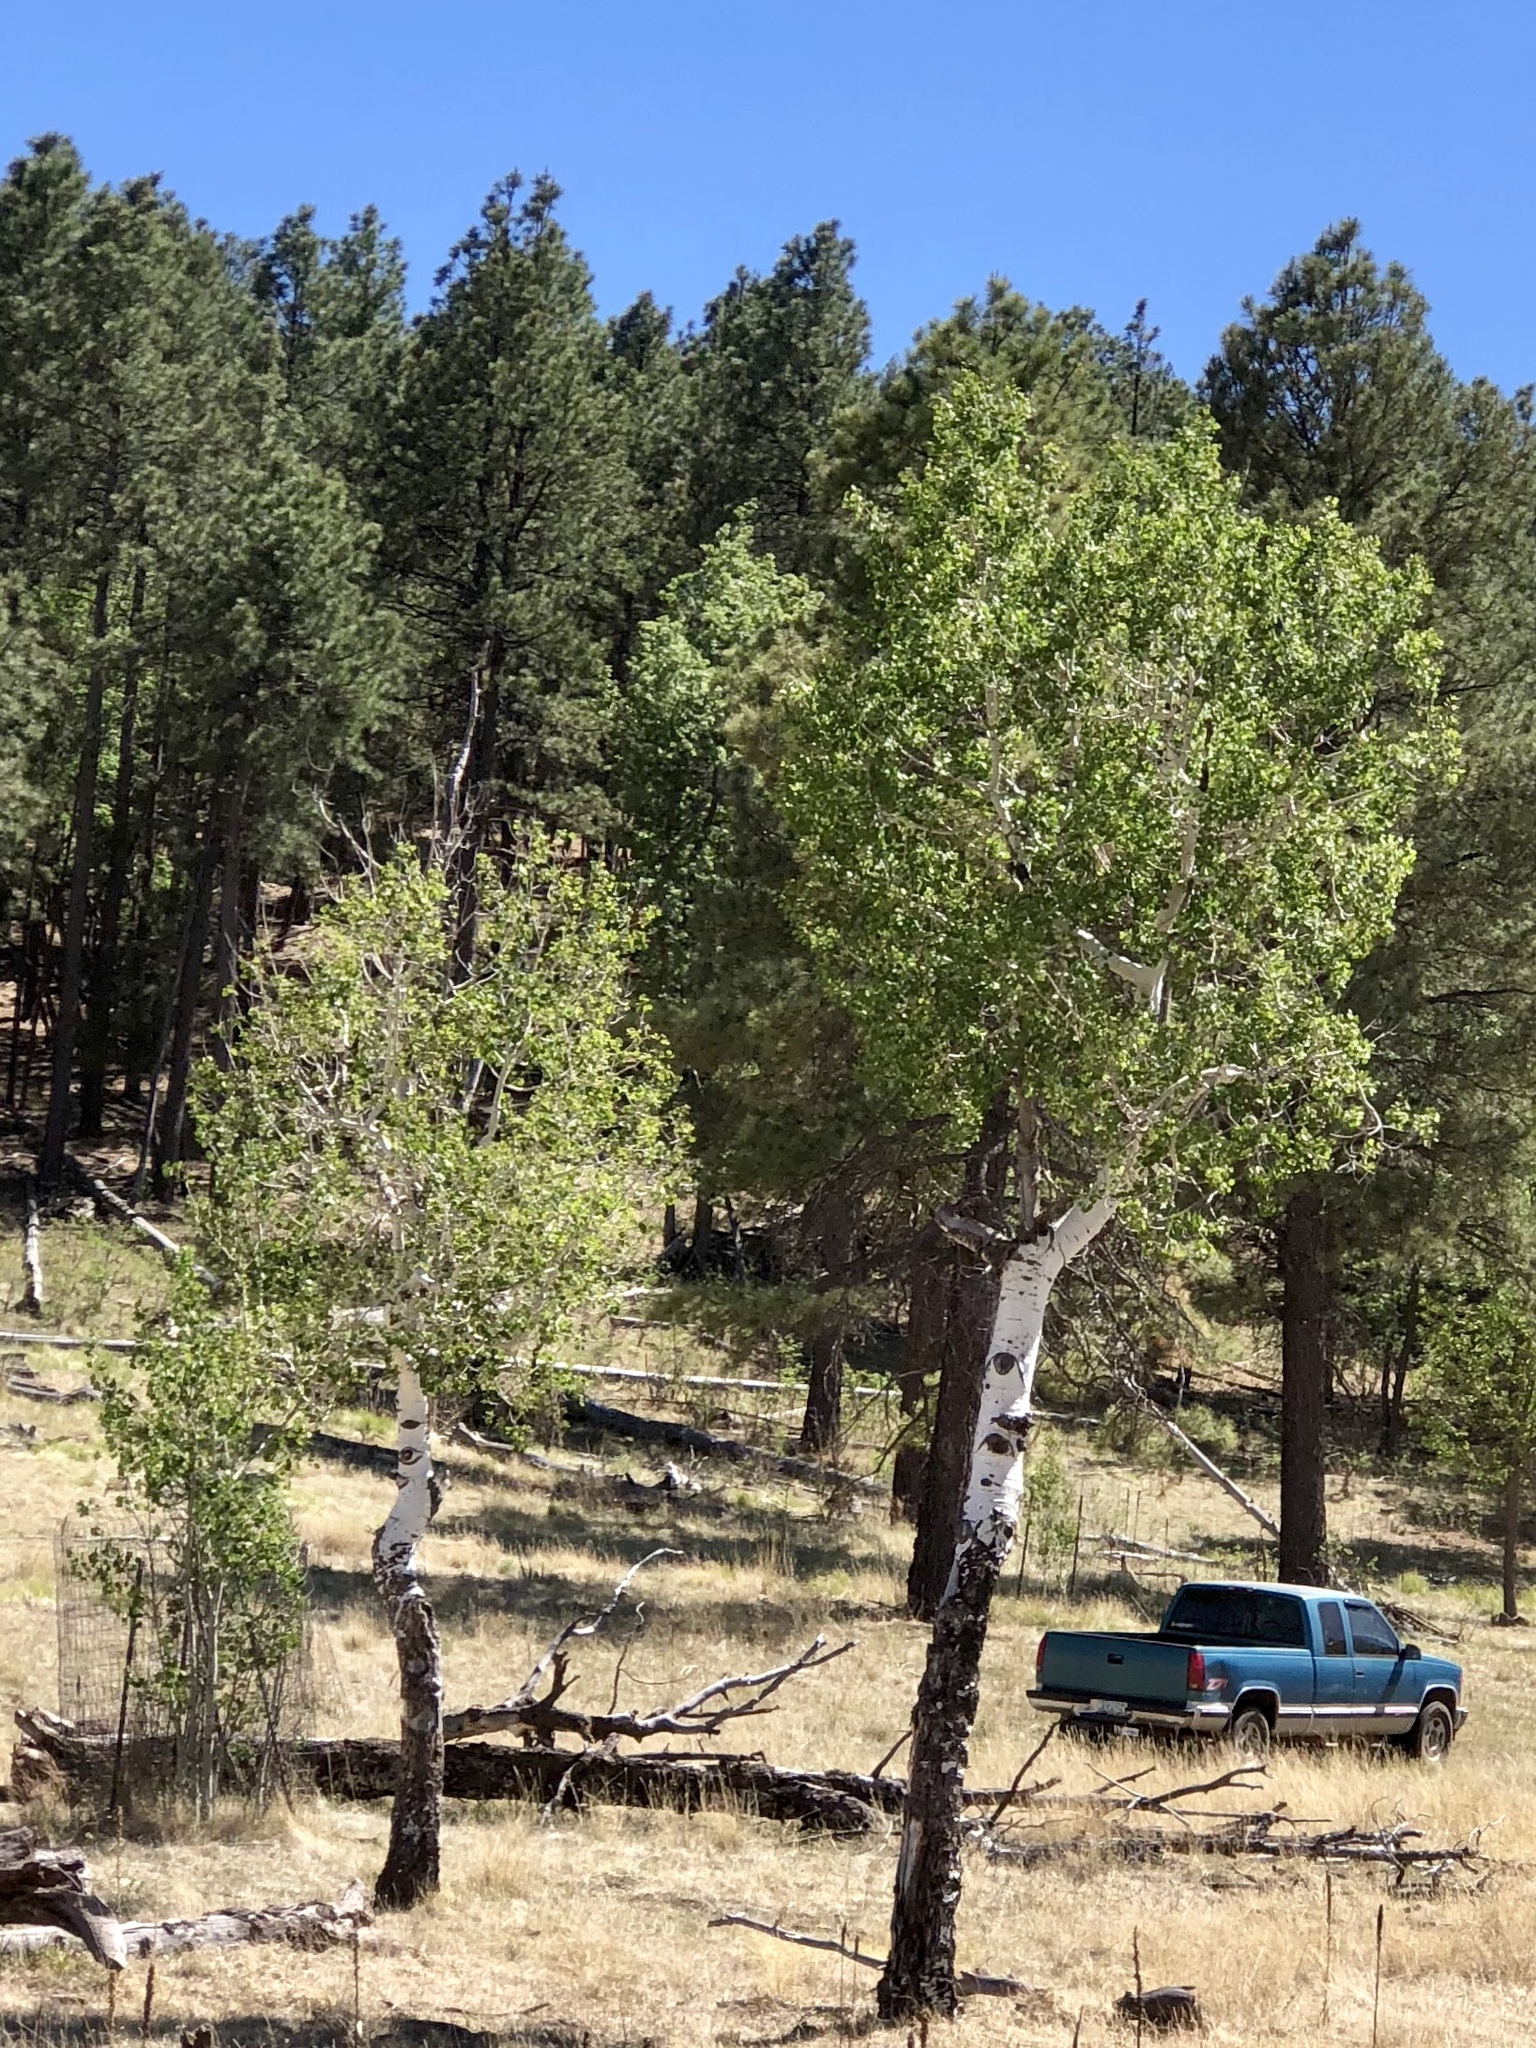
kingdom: Plantae
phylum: Tracheophyta
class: Magnoliopsida
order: Malpighiales
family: Salicaceae
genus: Populus
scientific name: Populus tremuloides
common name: Quaking aspen
